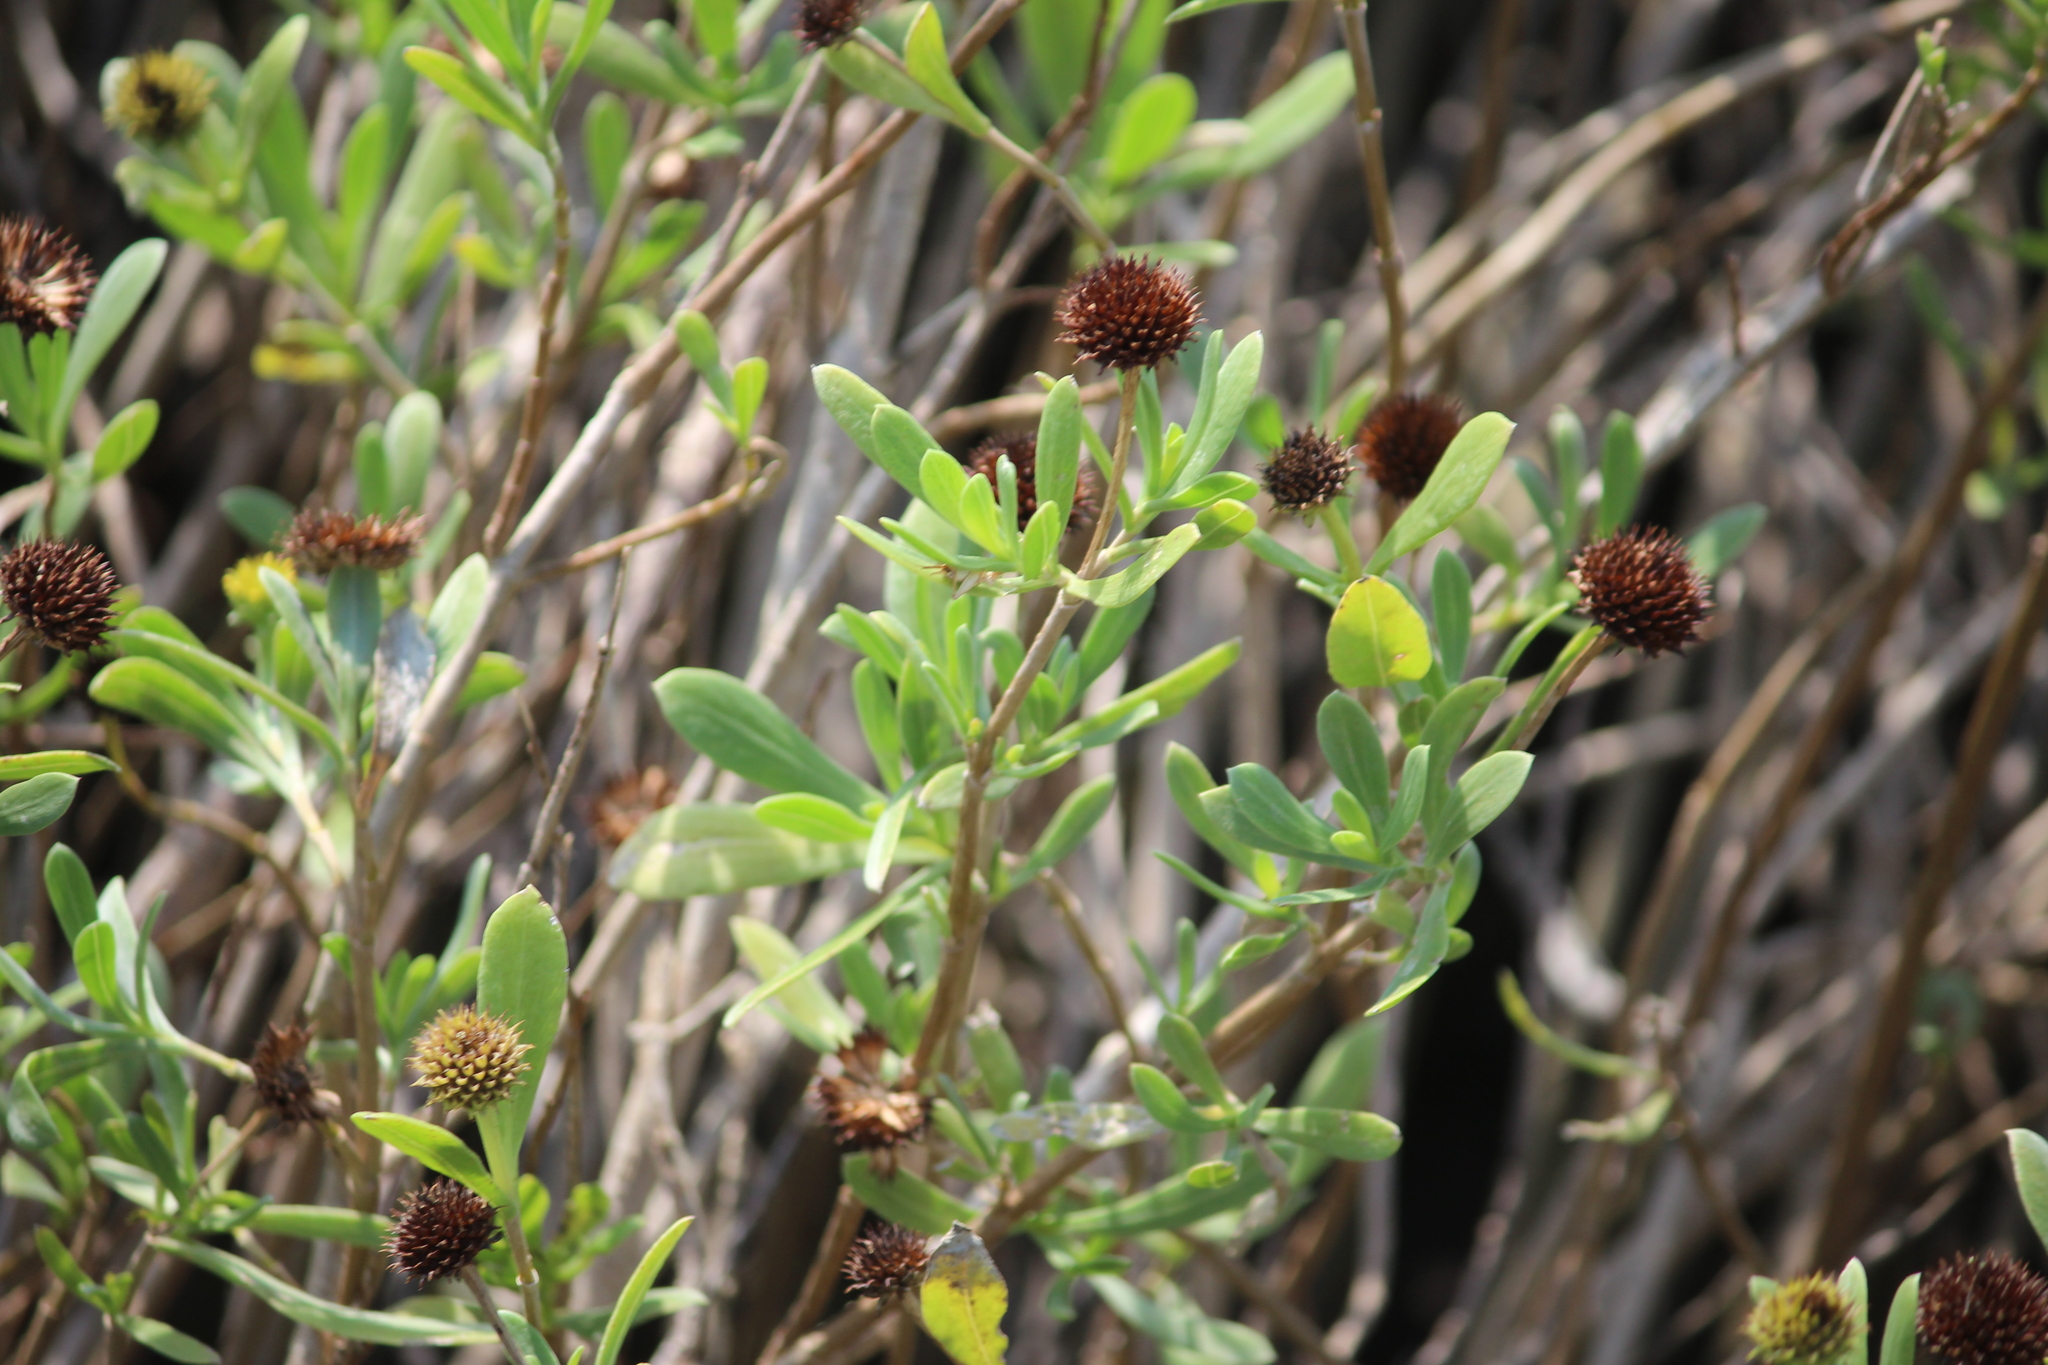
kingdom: Plantae
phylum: Tracheophyta
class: Magnoliopsida
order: Asterales
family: Asteraceae
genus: Borrichia
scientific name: Borrichia frutescens
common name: Sea oxeye
